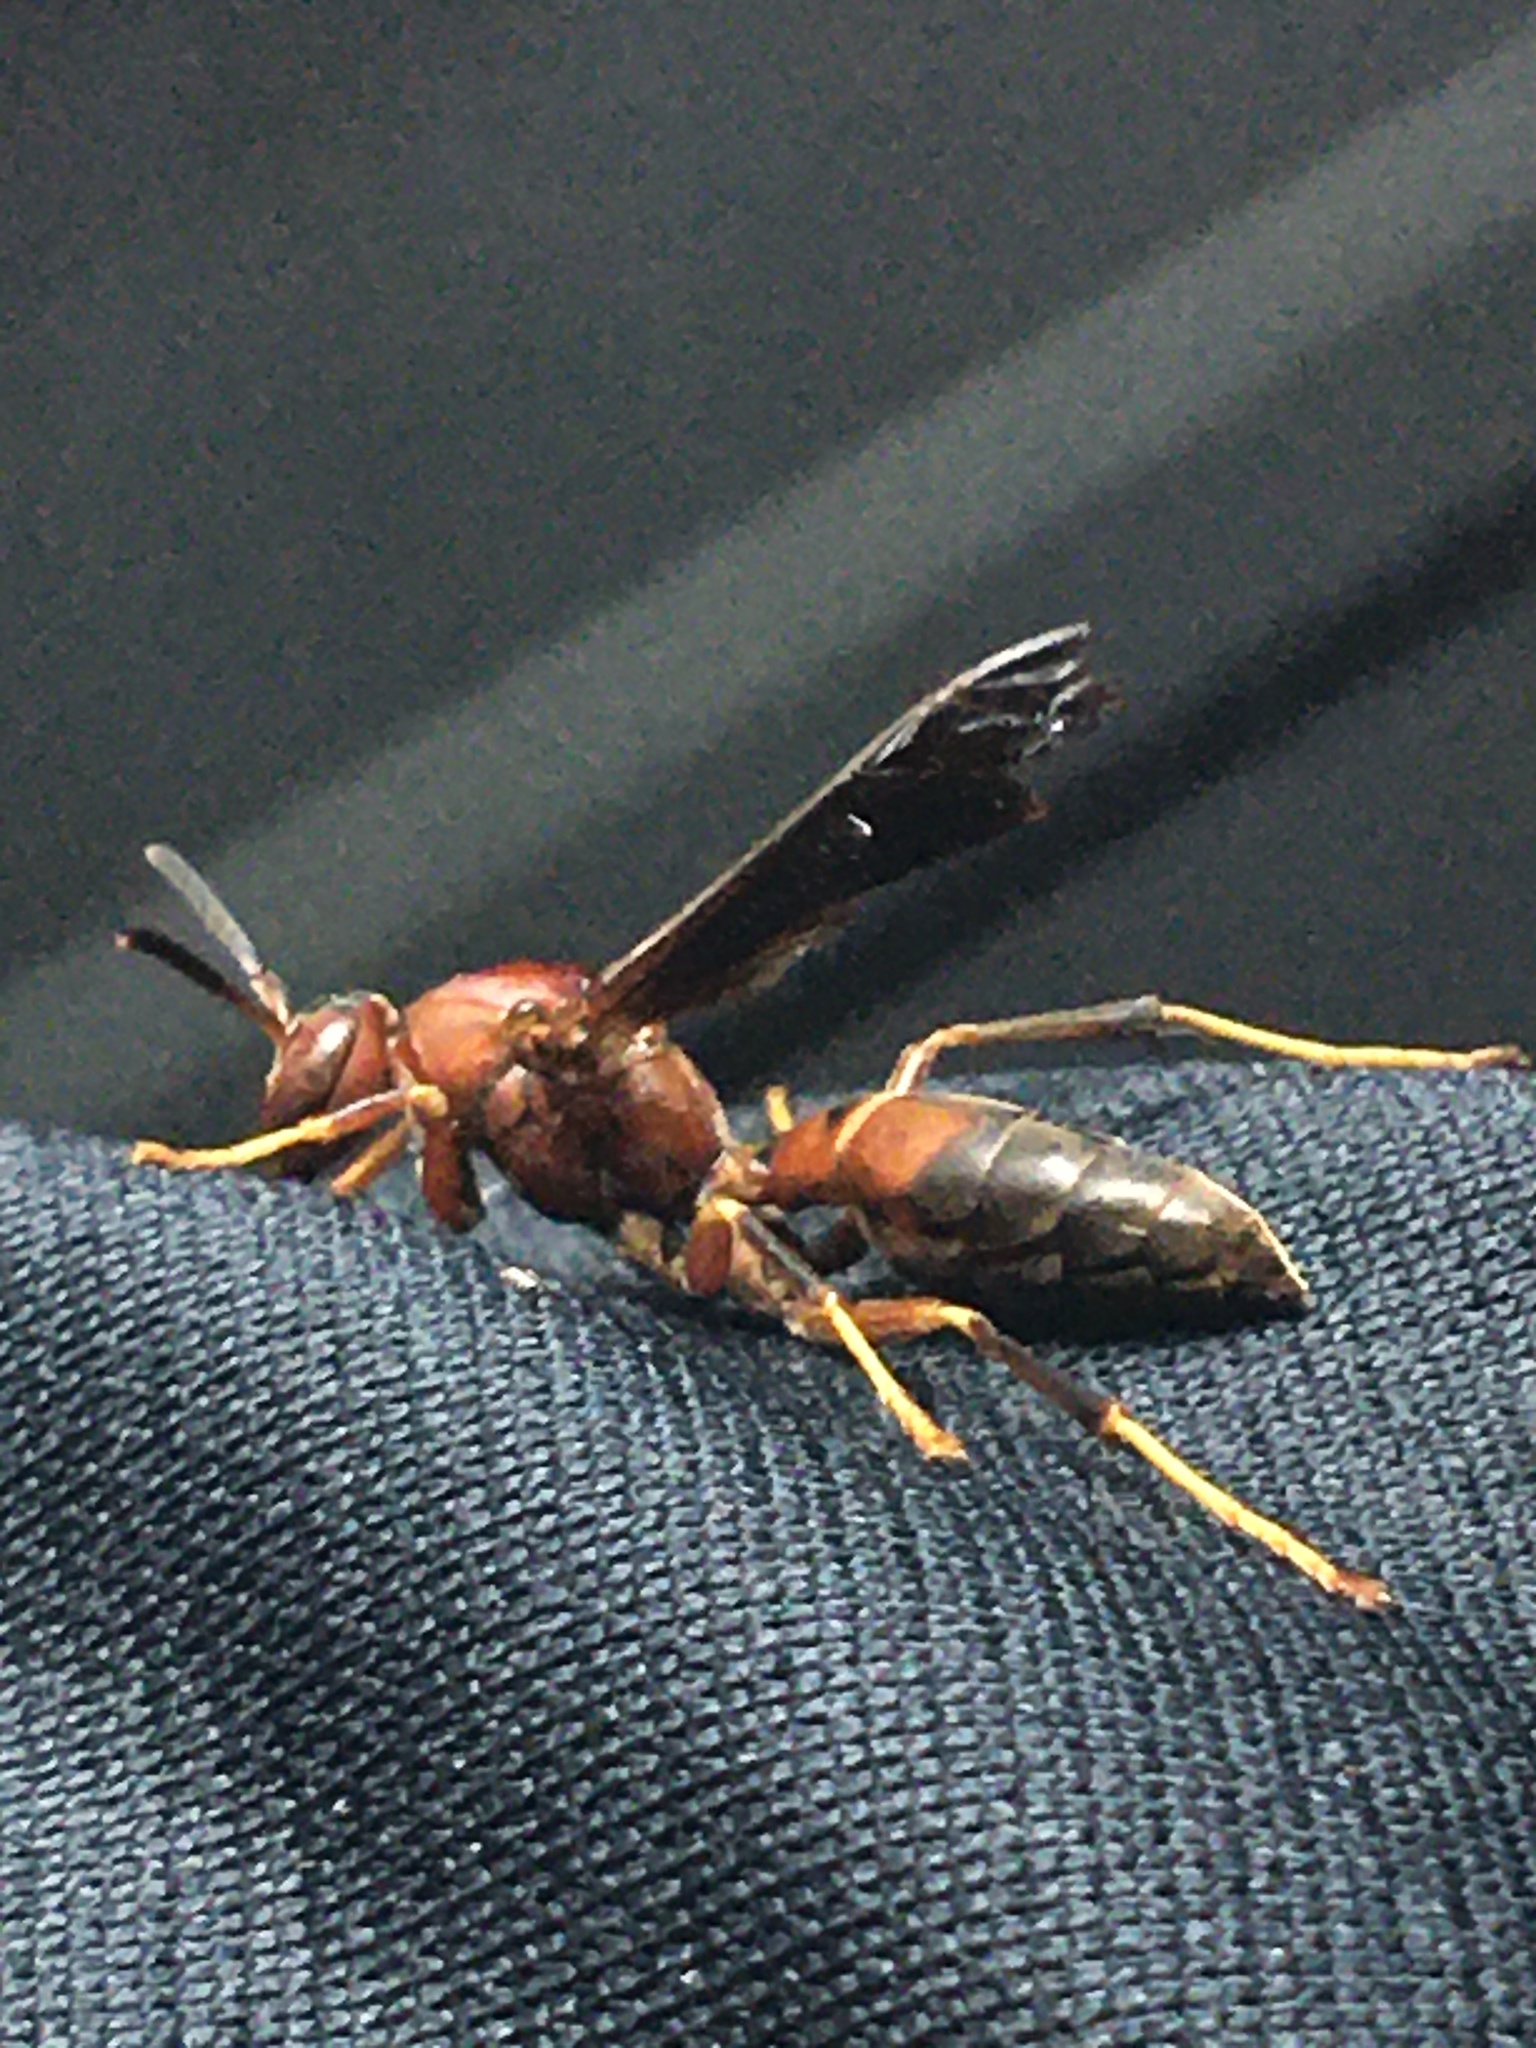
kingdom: Animalia
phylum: Arthropoda
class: Insecta
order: Hymenoptera
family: Eumenidae
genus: Polistes
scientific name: Polistes metricus
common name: Metric paper wasp
